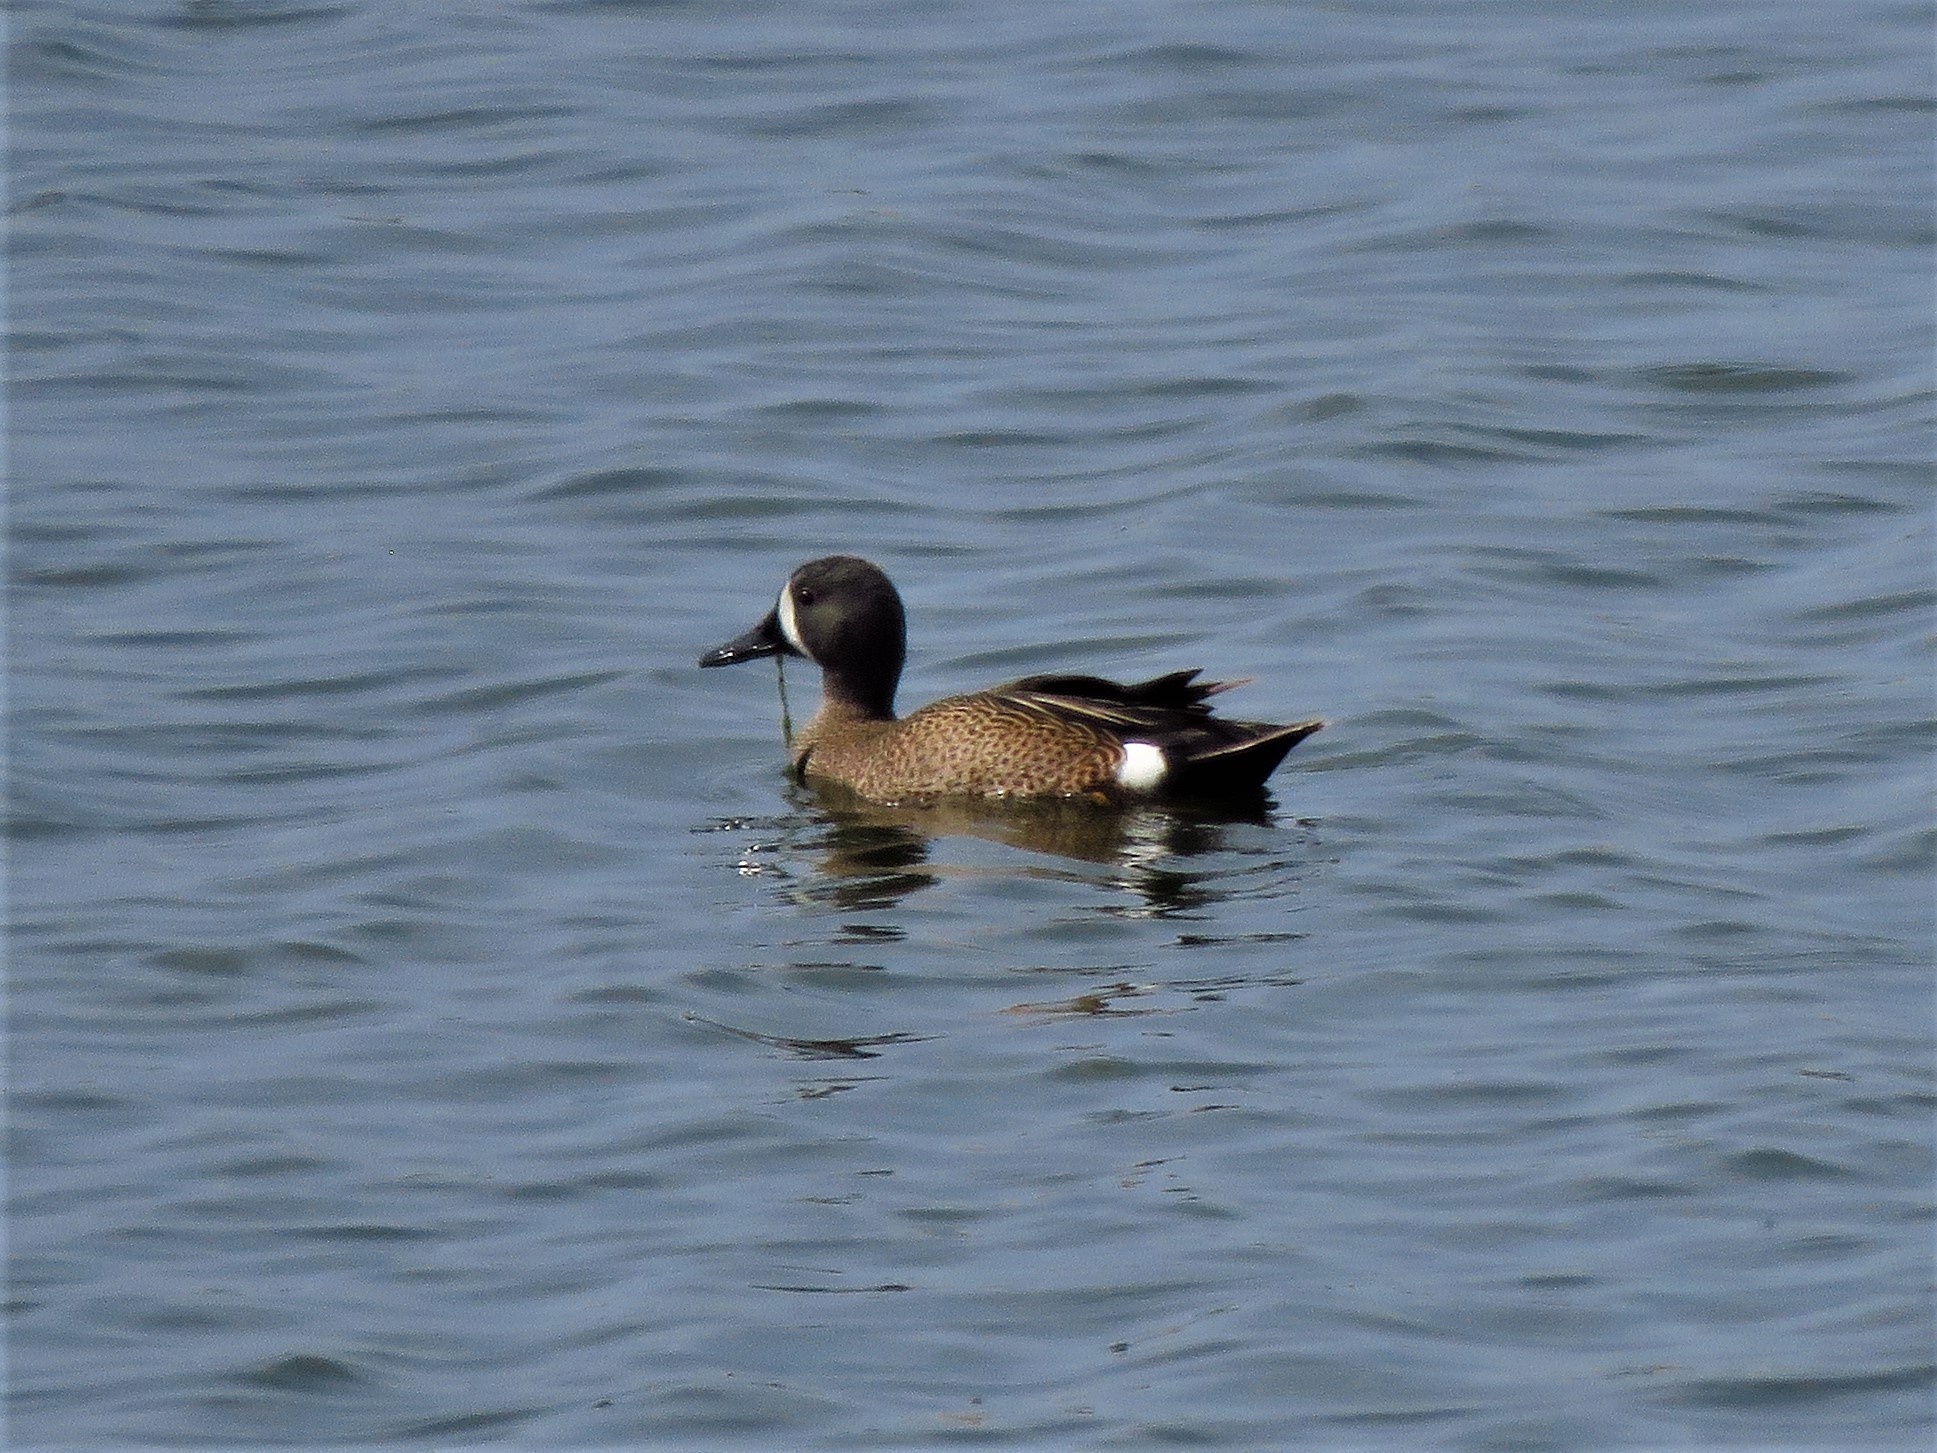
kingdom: Animalia
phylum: Chordata
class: Aves
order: Anseriformes
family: Anatidae
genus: Spatula
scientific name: Spatula discors
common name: Blue-winged teal
